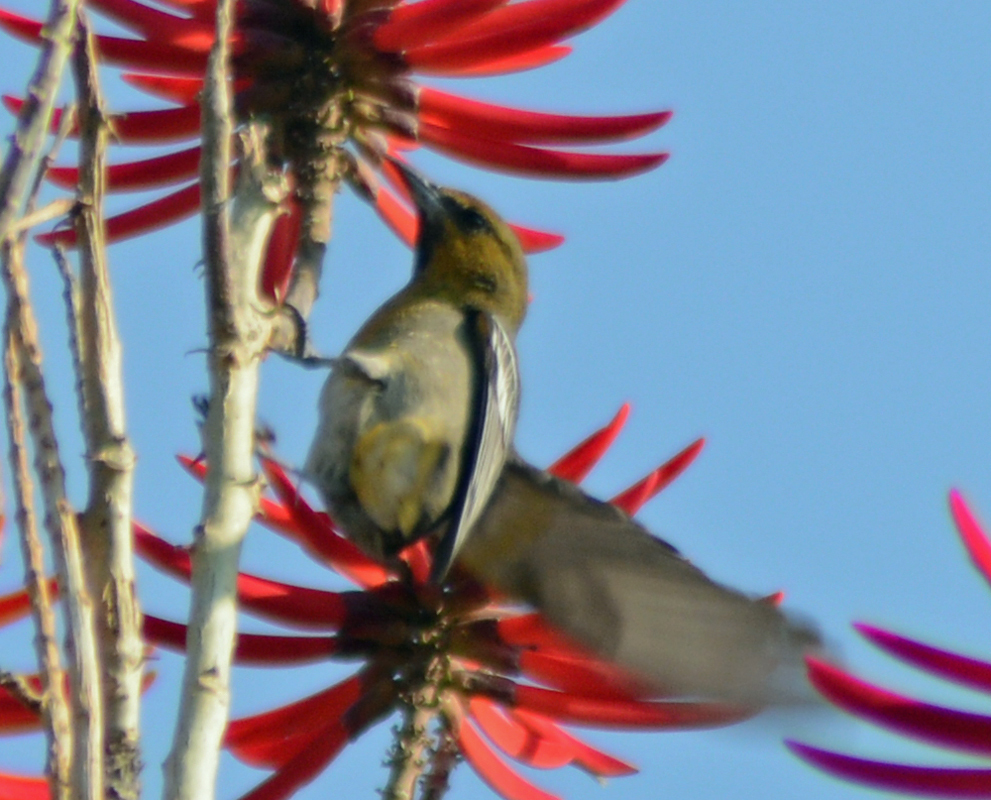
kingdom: Animalia
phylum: Chordata
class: Aves
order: Passeriformes
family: Icteridae
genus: Icterus
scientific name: Icterus abeillei
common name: Black-backed oriole
